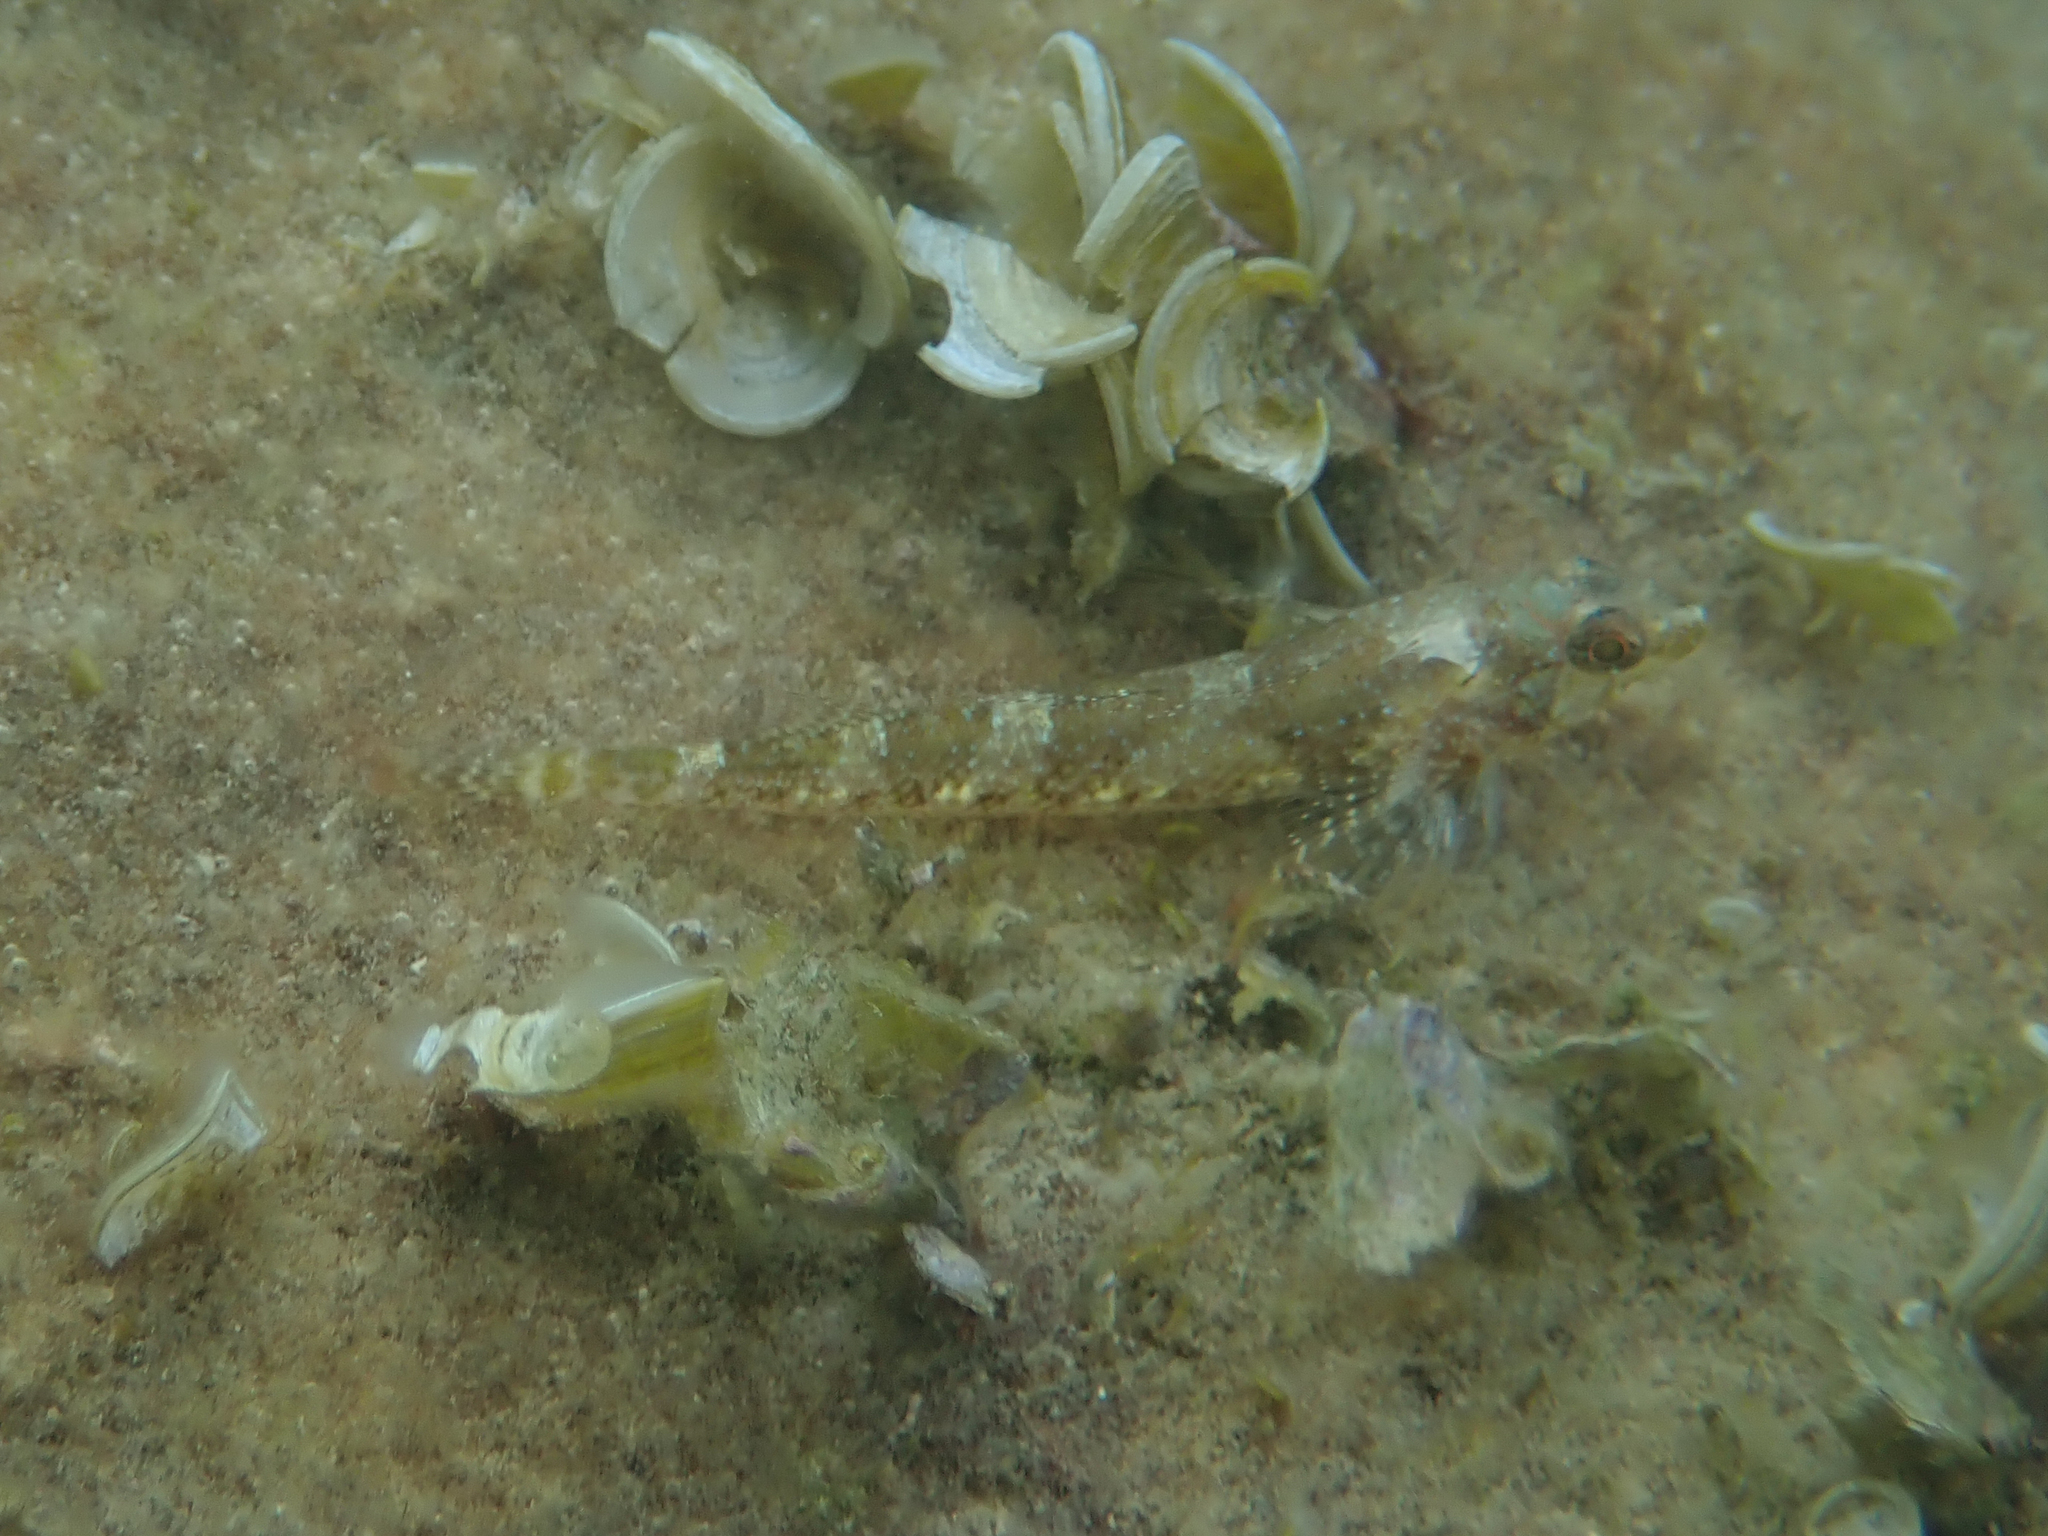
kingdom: Animalia
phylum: Chordata
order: Perciformes
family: Tripterygiidae
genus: Tripterygion
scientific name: Tripterygion tripteronotum
